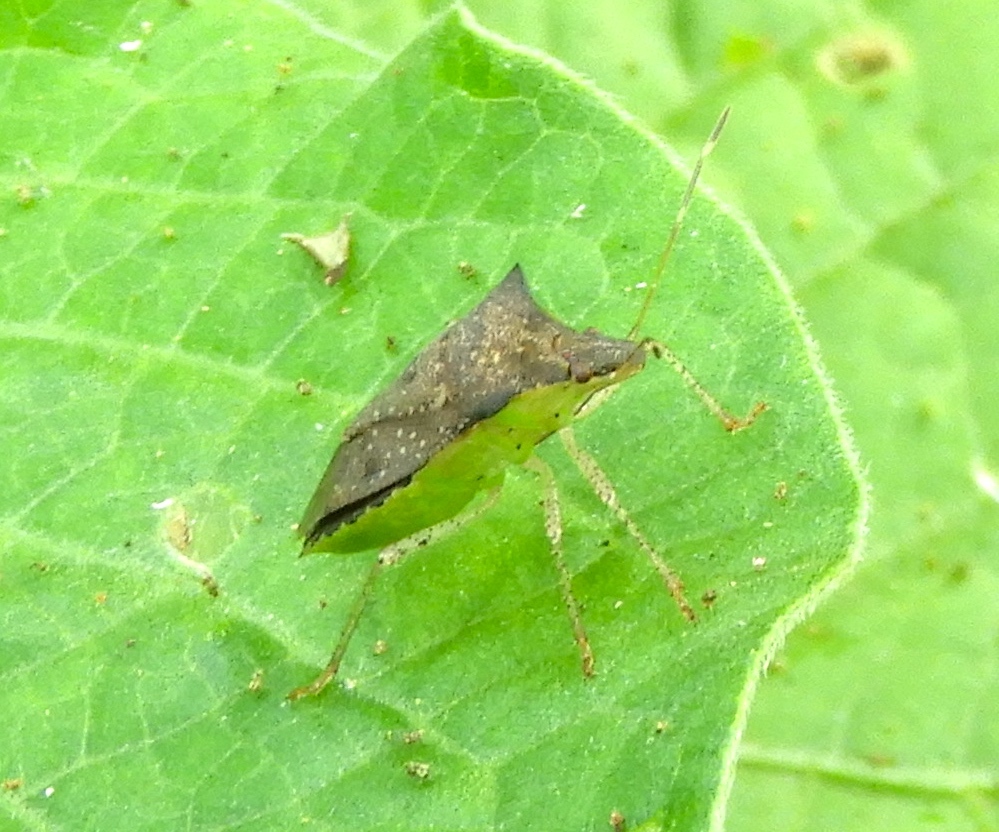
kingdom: Animalia
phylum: Arthropoda
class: Insecta
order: Hemiptera
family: Pentatomidae
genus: Euschistus
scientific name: Euschistus
